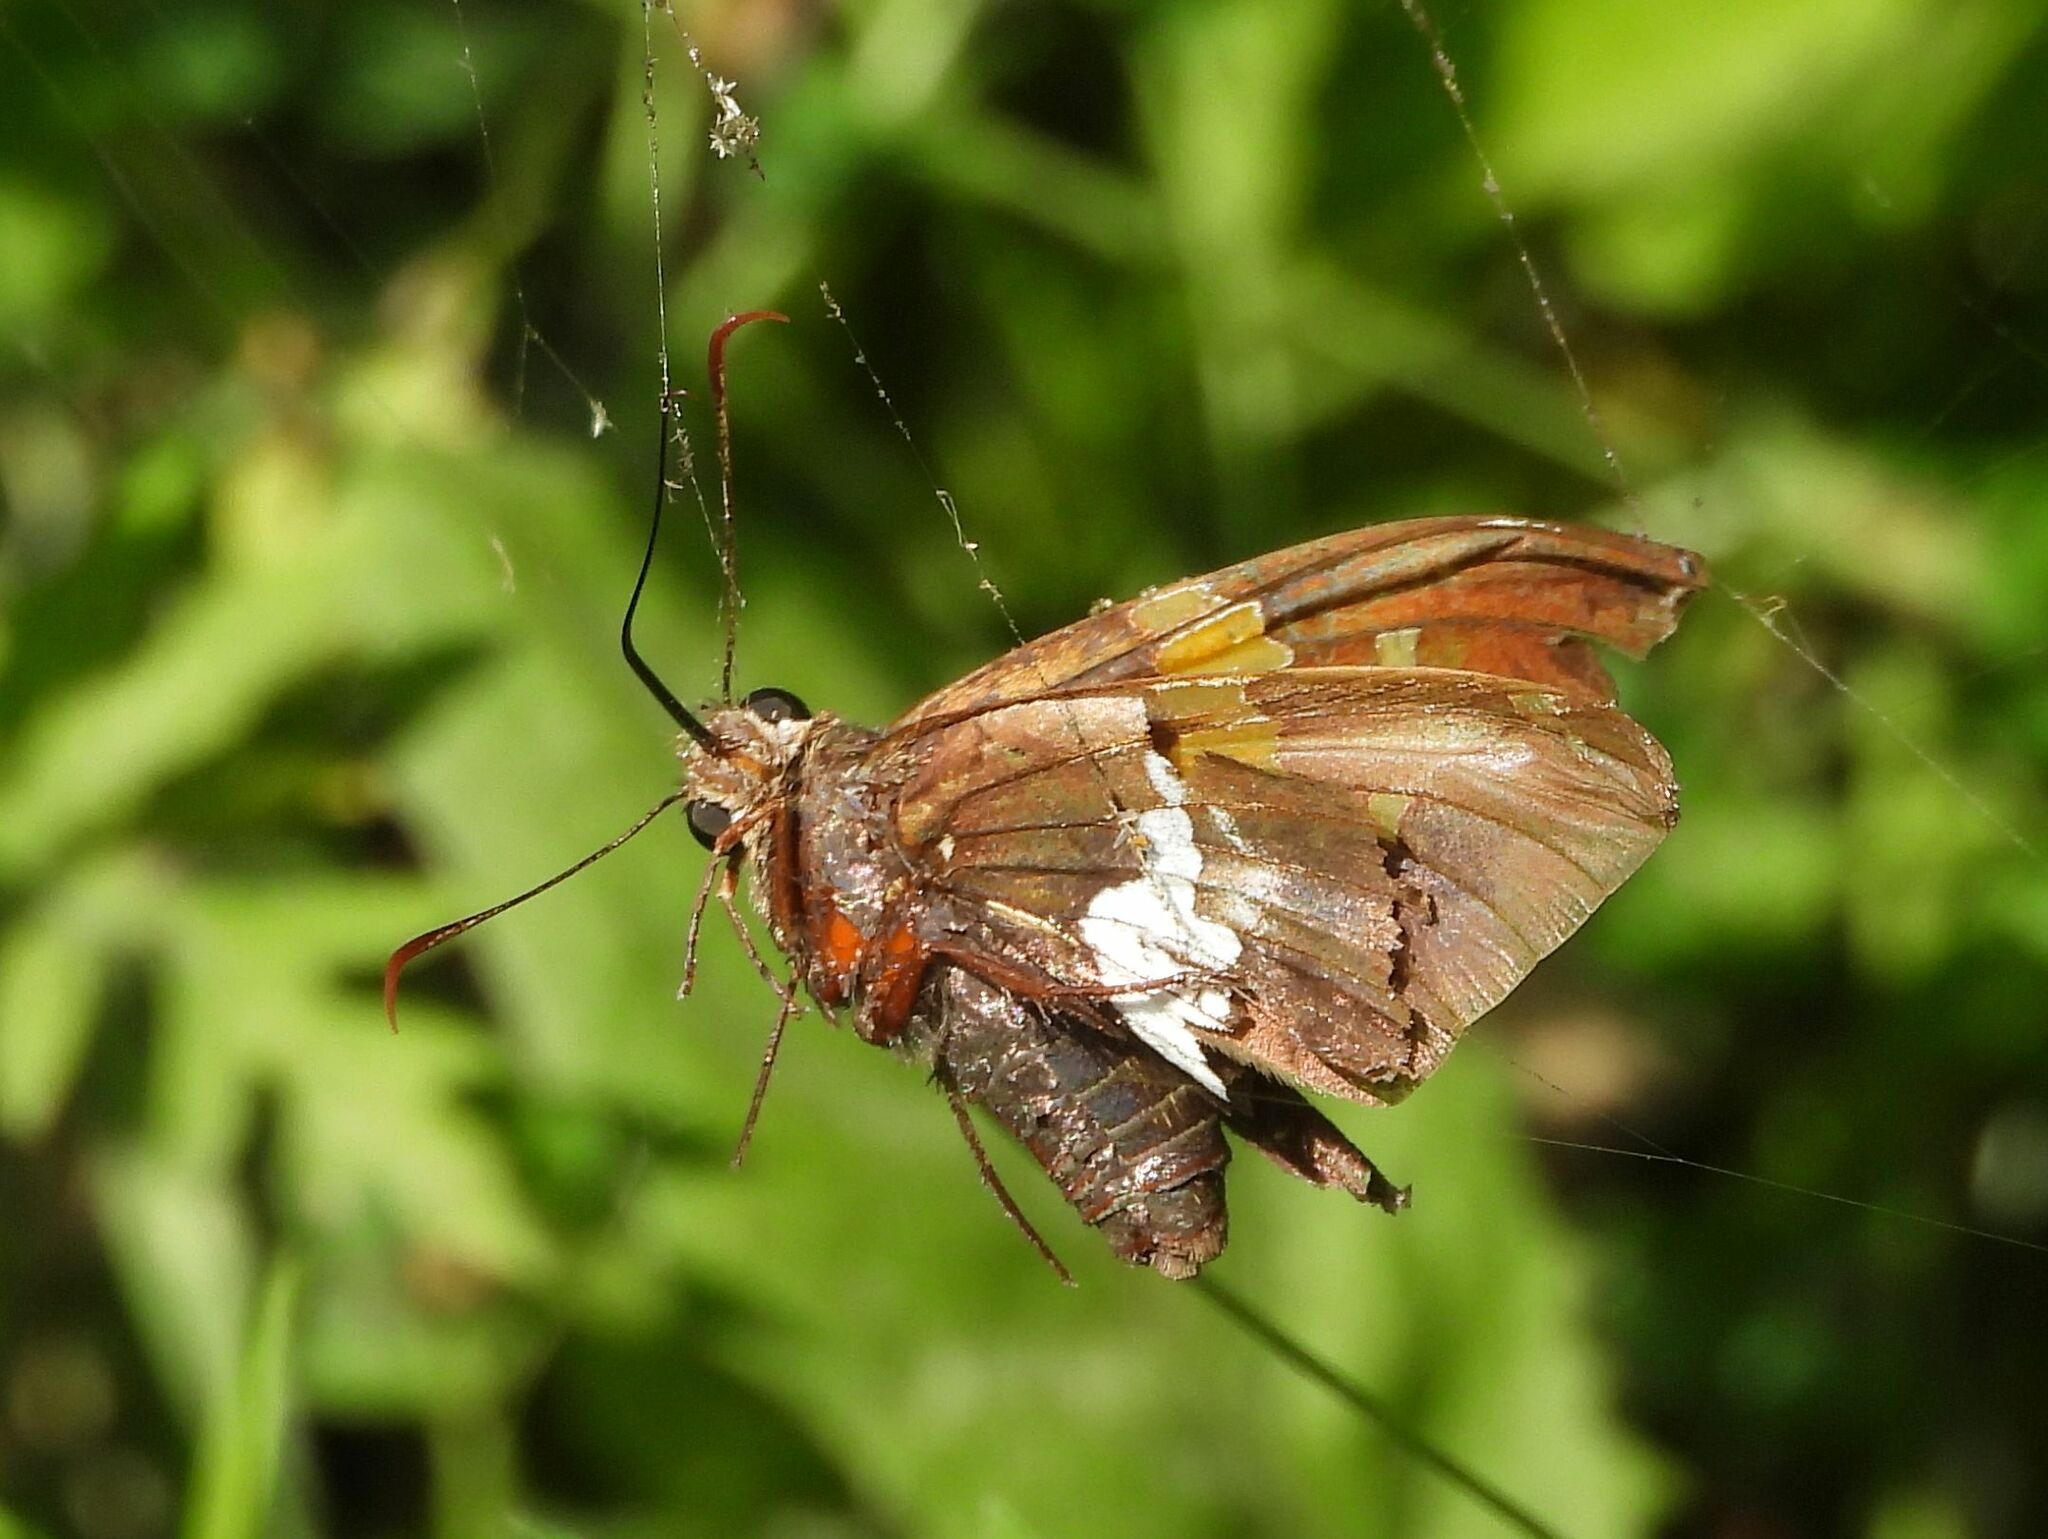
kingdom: Animalia
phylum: Arthropoda
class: Insecta
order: Lepidoptera
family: Hesperiidae
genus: Epargyreus
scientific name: Epargyreus clarus
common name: Silver-spotted skipper
